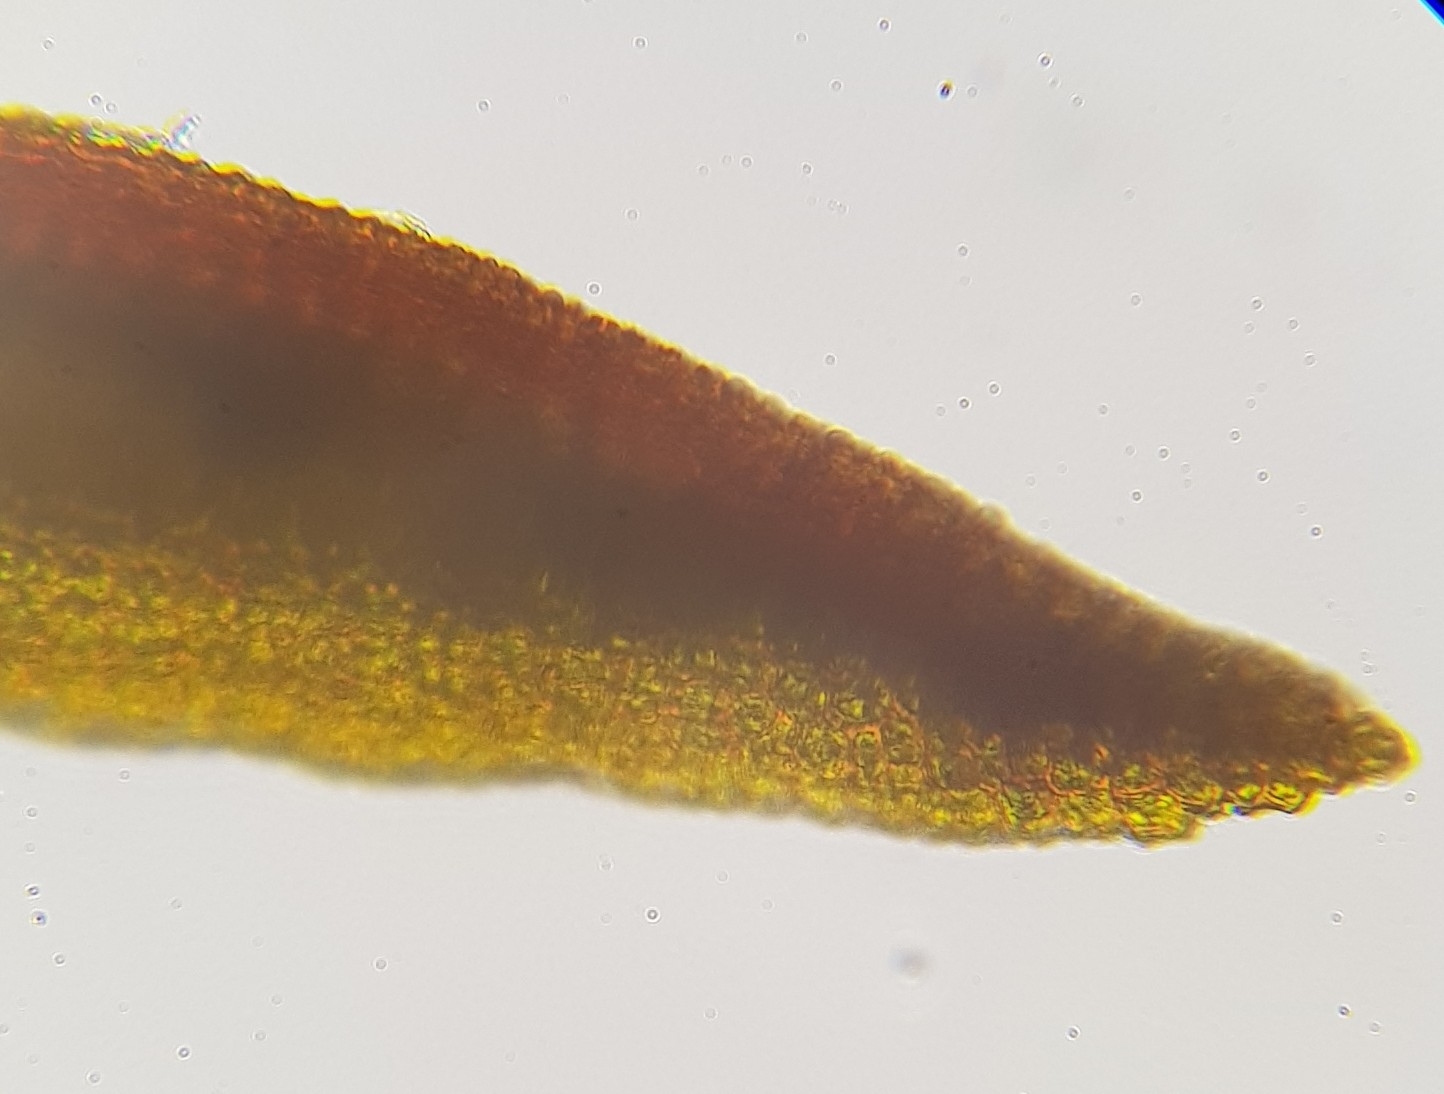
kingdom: Plantae
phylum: Bryophyta
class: Bryopsida
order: Pottiales
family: Pottiaceae
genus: Bryoerythrophyllum
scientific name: Bryoerythrophyllum recurvirostrum
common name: Red beard moss
